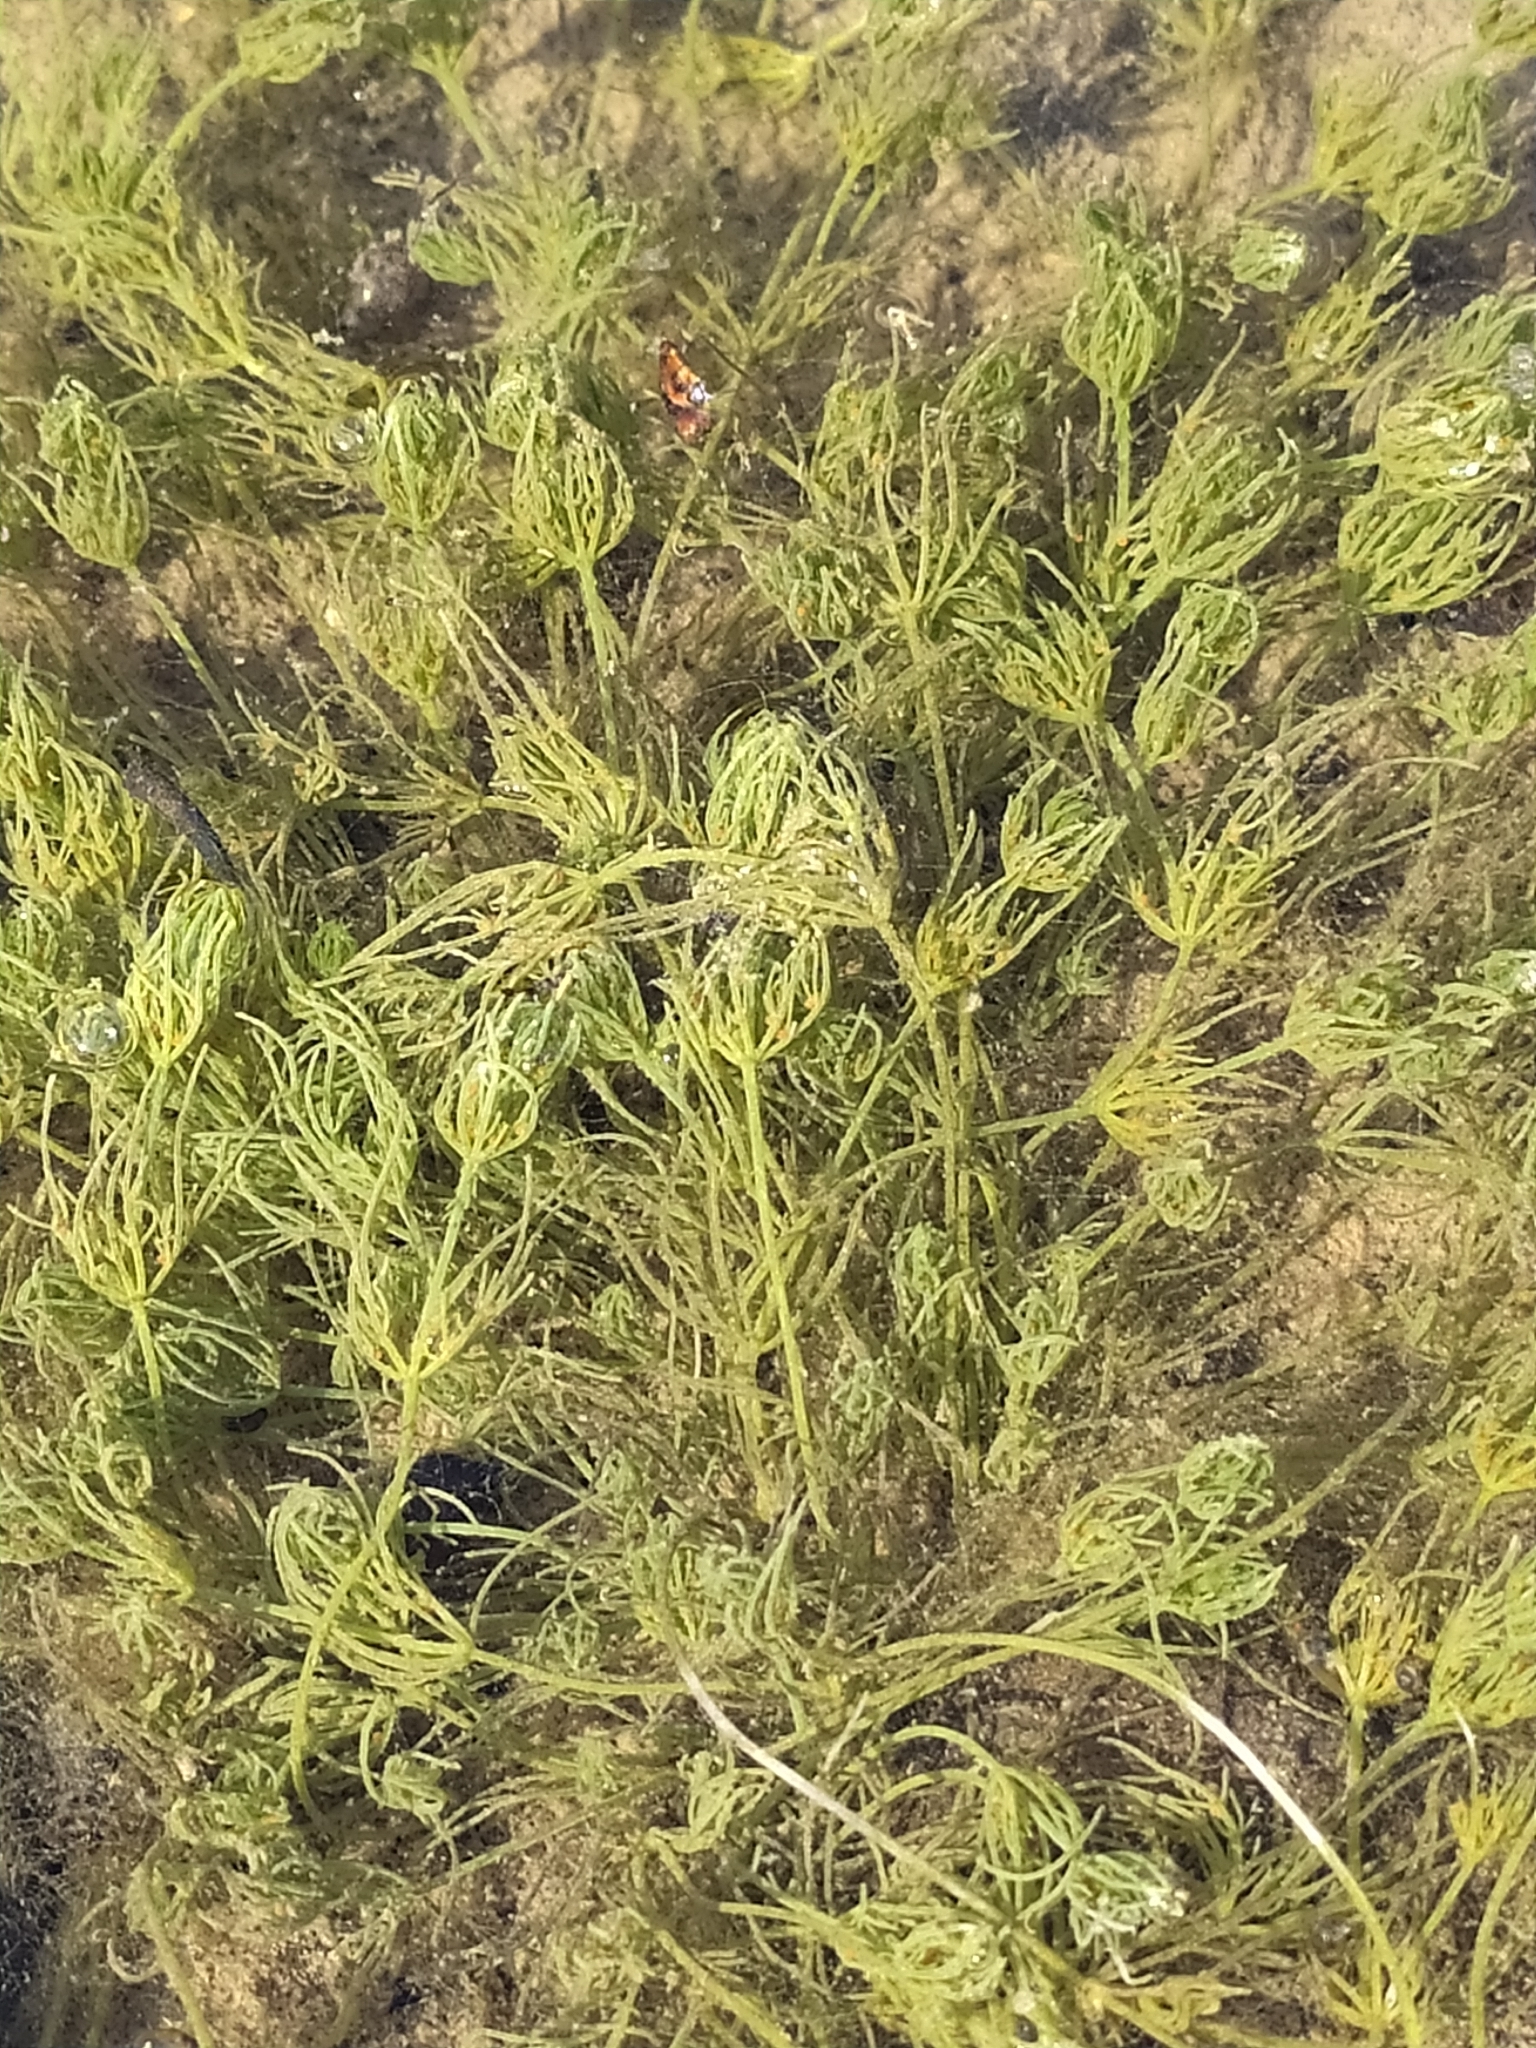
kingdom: Plantae
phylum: Charophyta
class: Charophyceae
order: Charales
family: Characeae
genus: Chara
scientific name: Chara
